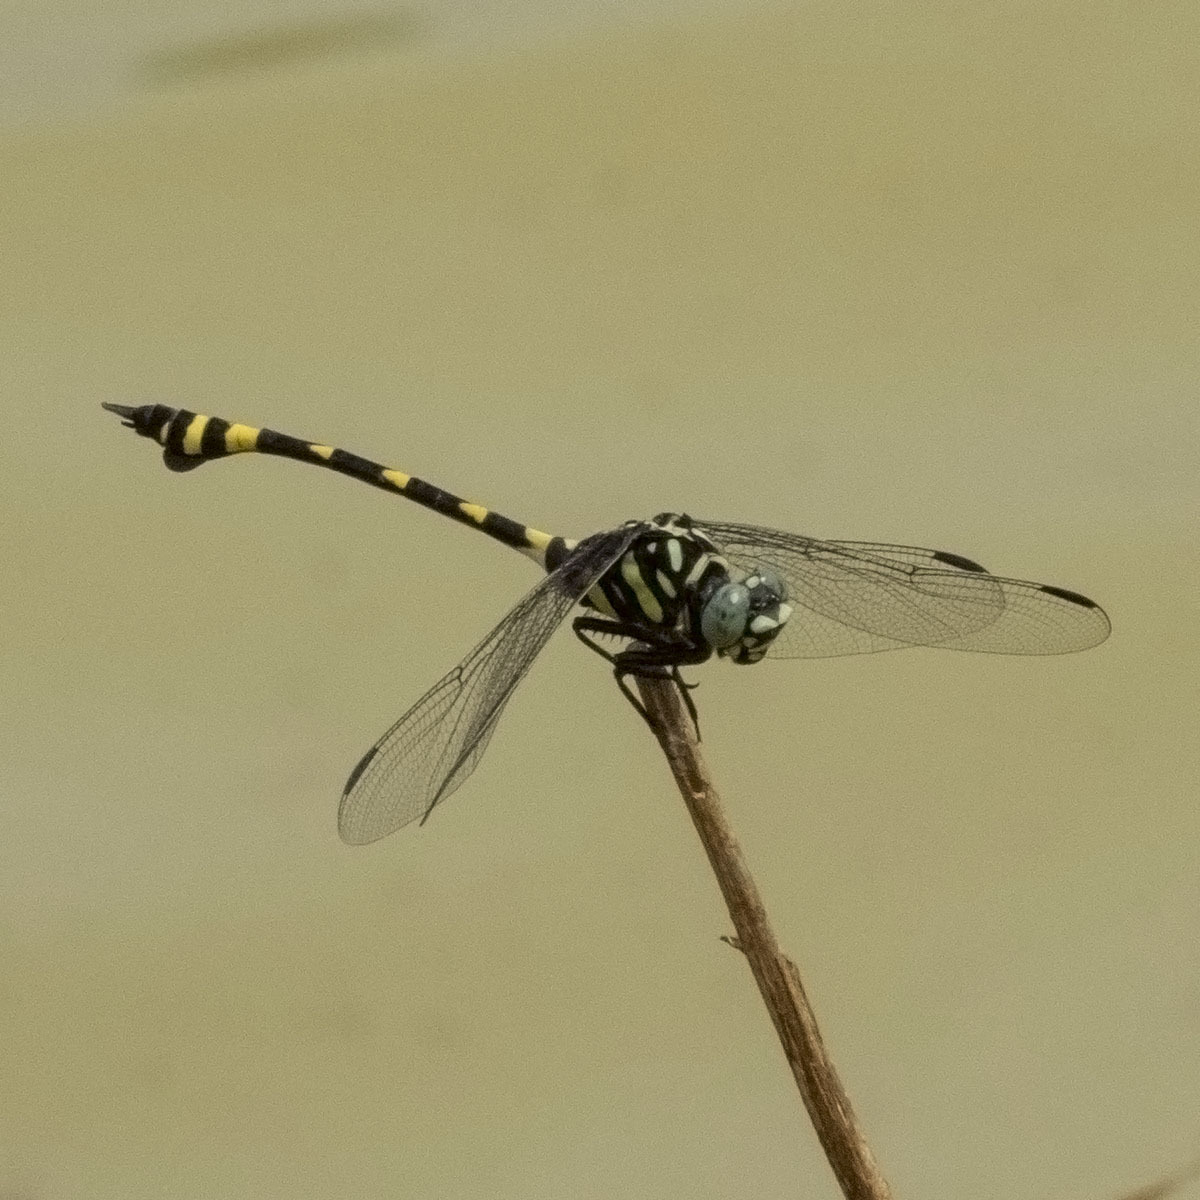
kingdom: Animalia
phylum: Arthropoda
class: Insecta
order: Odonata
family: Gomphidae
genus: Ictinogomphus
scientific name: Ictinogomphus rapax
